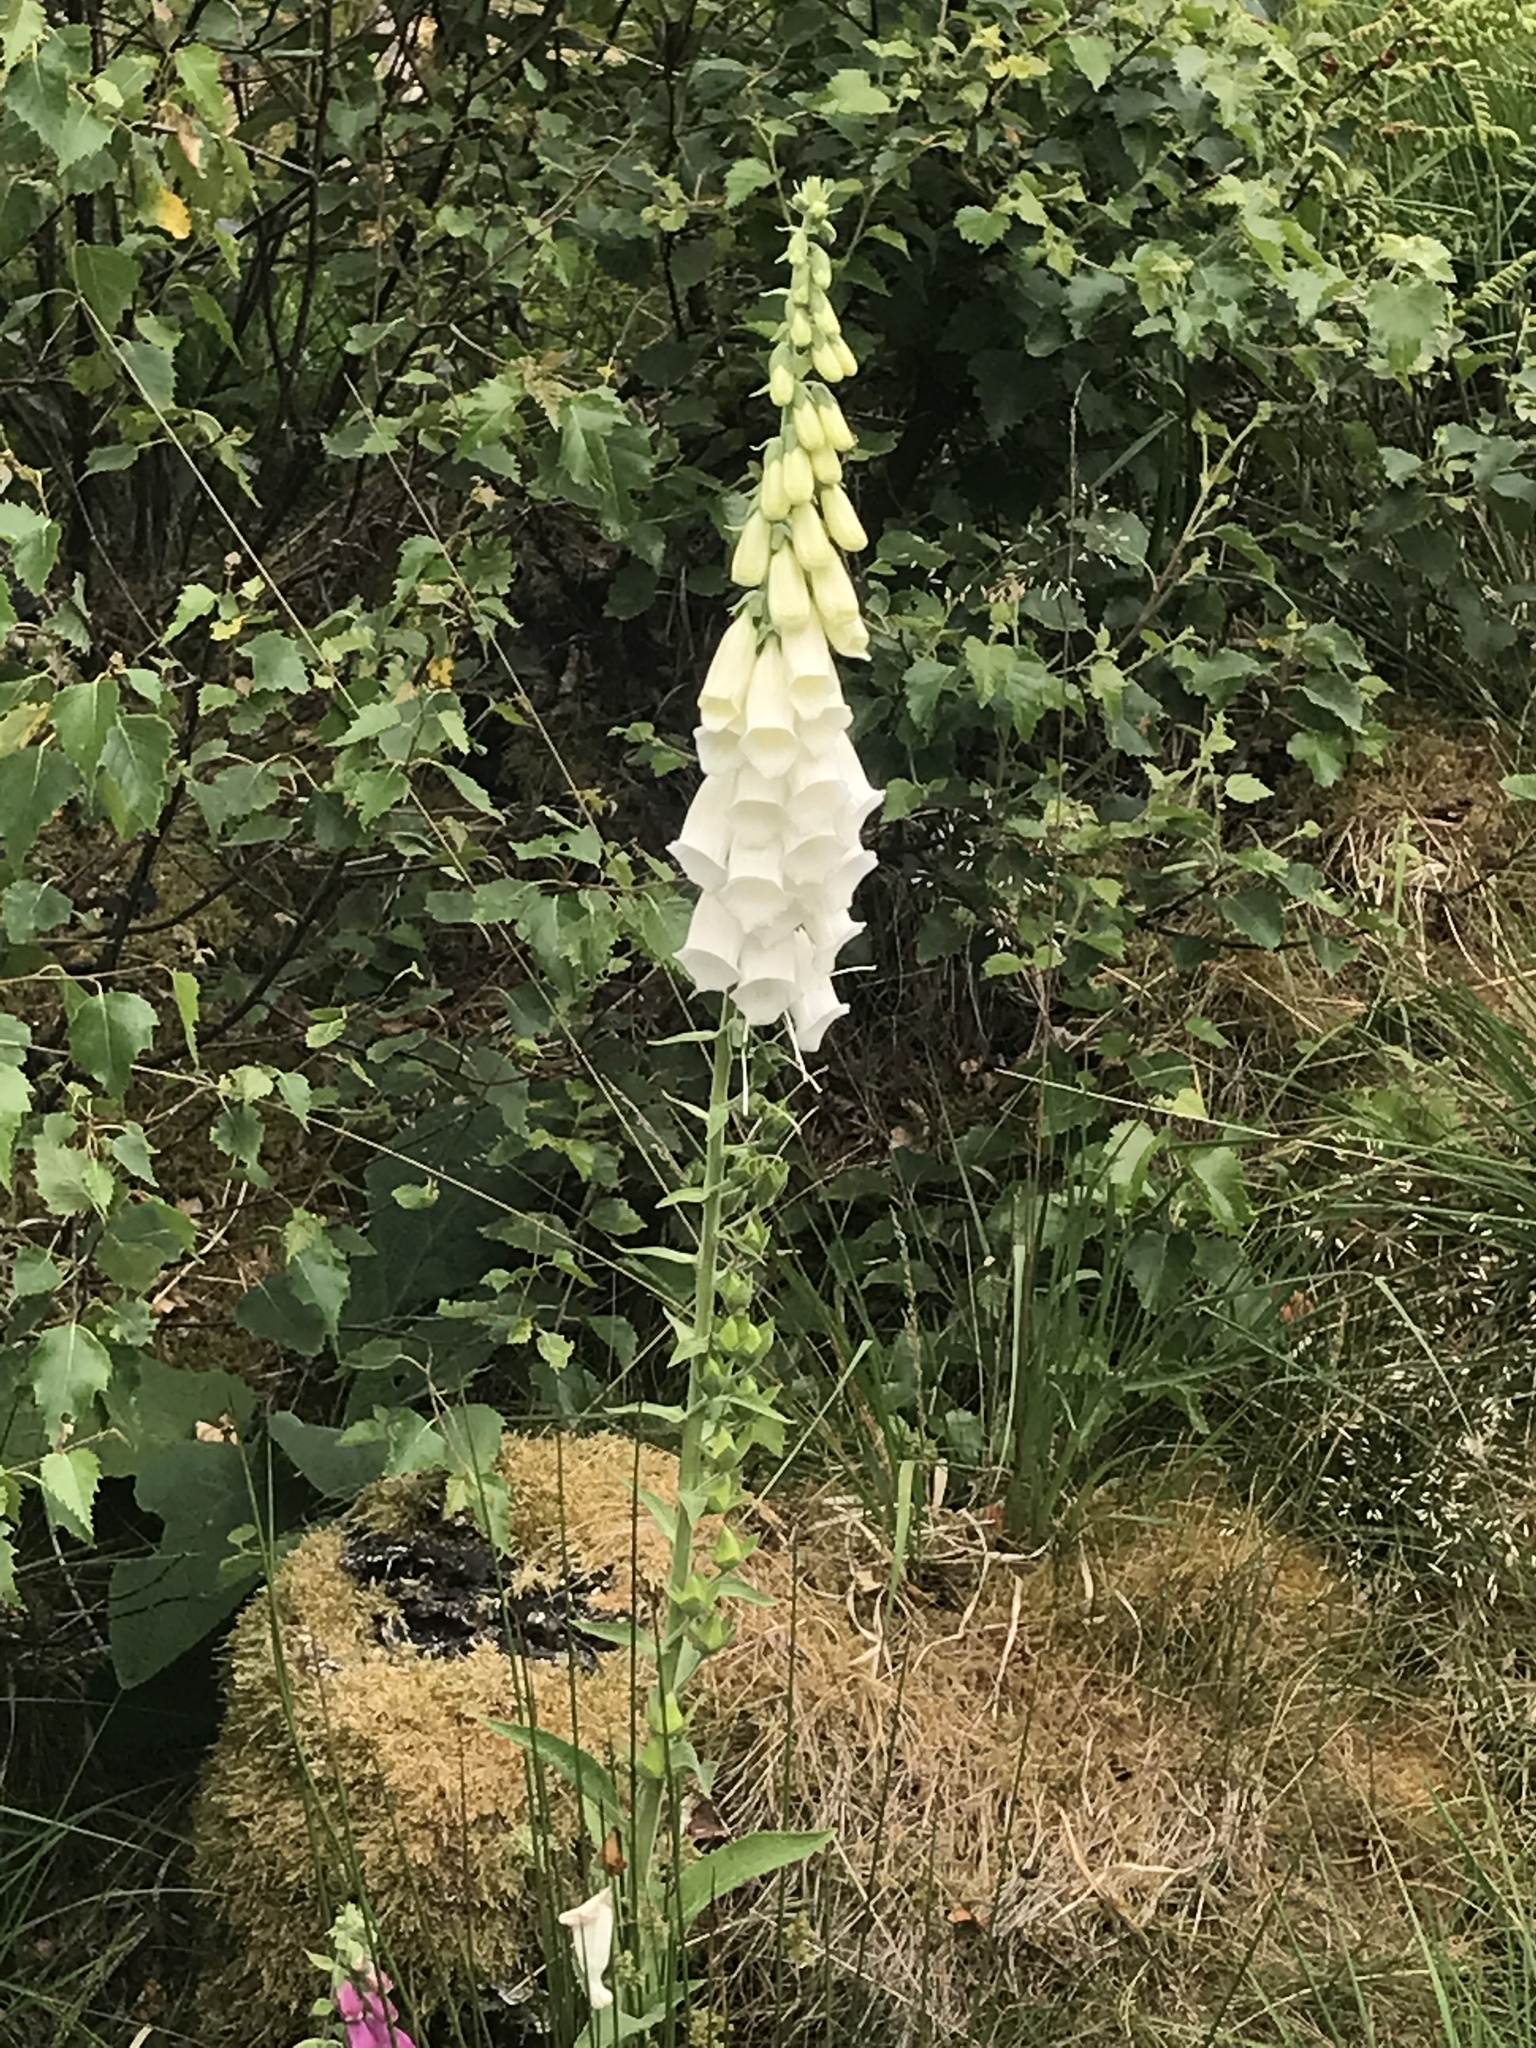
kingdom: Plantae
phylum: Tracheophyta
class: Magnoliopsida
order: Lamiales
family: Plantaginaceae
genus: Digitalis
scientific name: Digitalis purpurea
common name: Foxglove
